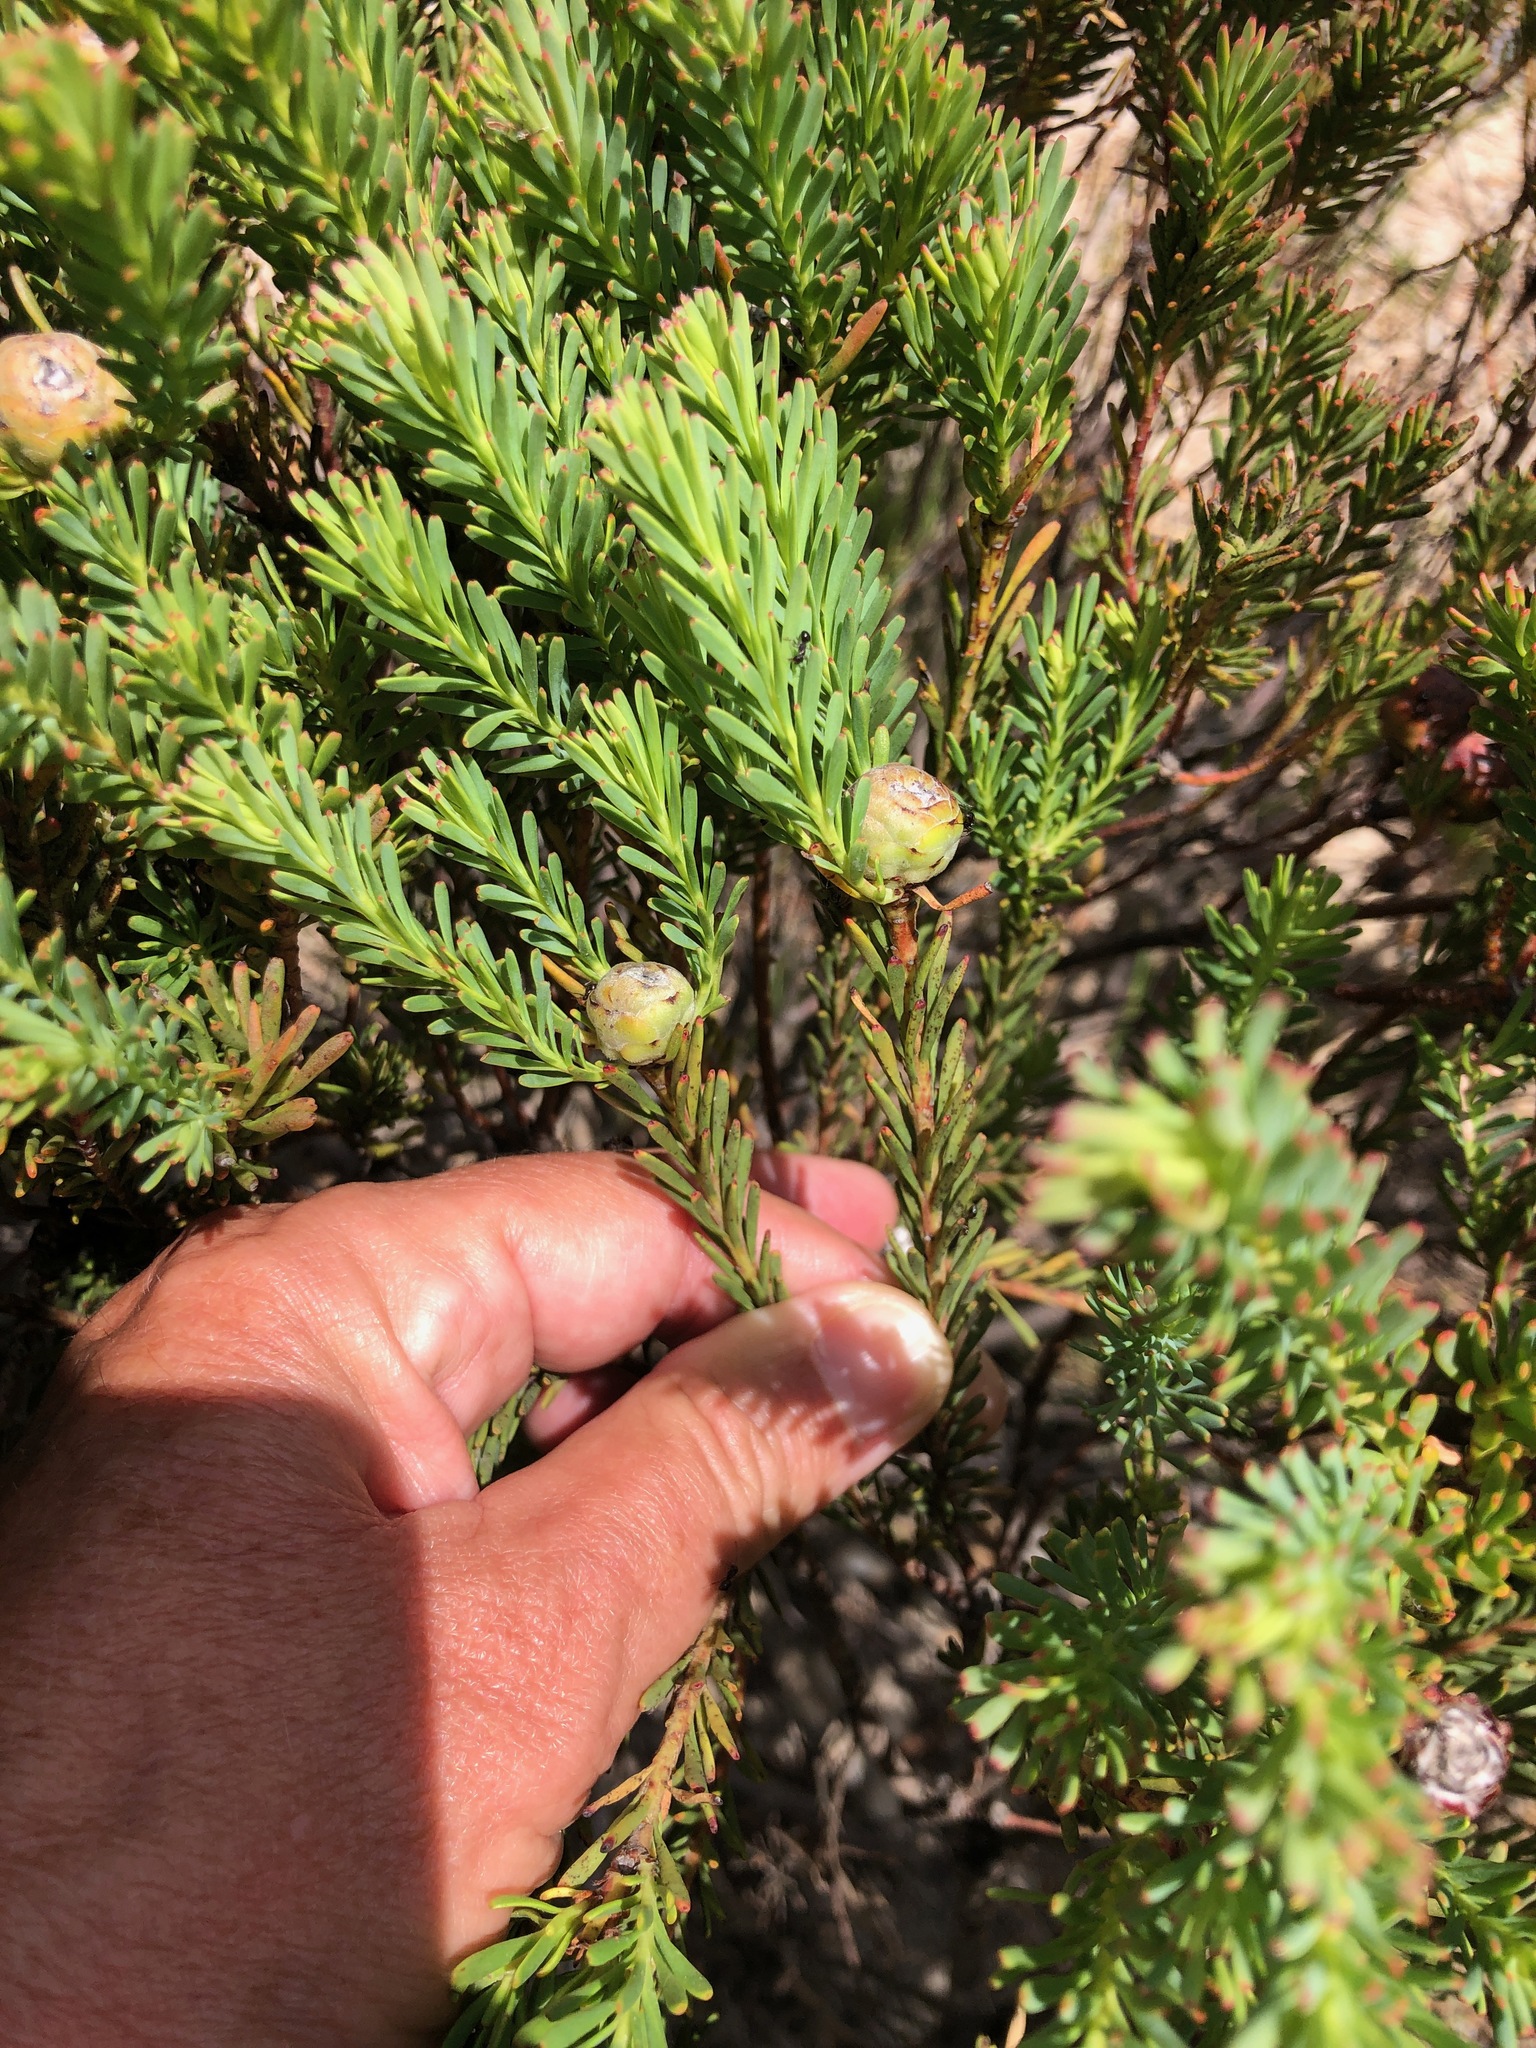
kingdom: Plantae
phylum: Tracheophyta
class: Magnoliopsida
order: Proteales
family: Proteaceae
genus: Leucadendron
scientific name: Leucadendron linifolium
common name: Line-leaf conebush
